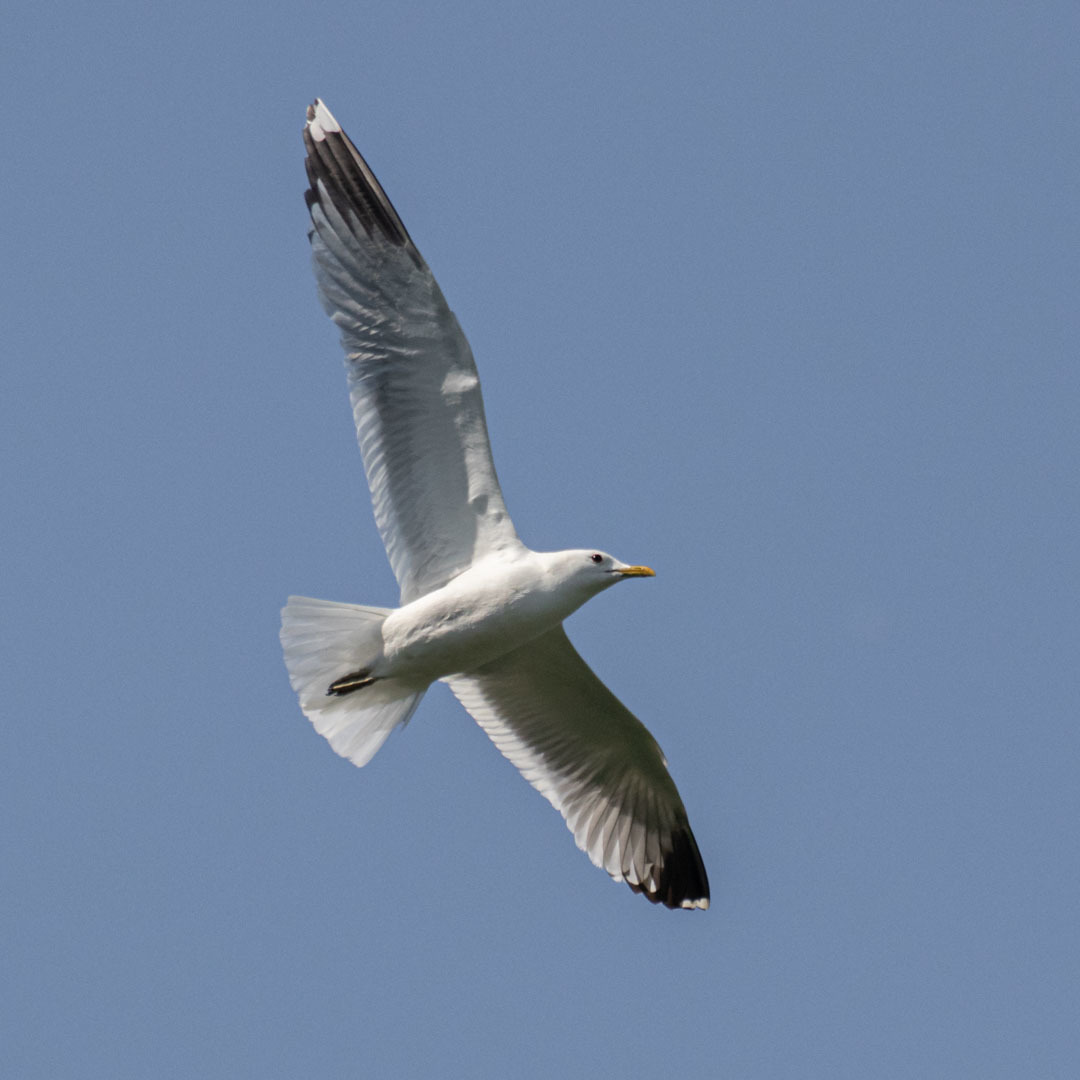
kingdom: Animalia
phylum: Chordata
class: Aves
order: Charadriiformes
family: Laridae
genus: Larus
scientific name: Larus canus
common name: Mew gull
